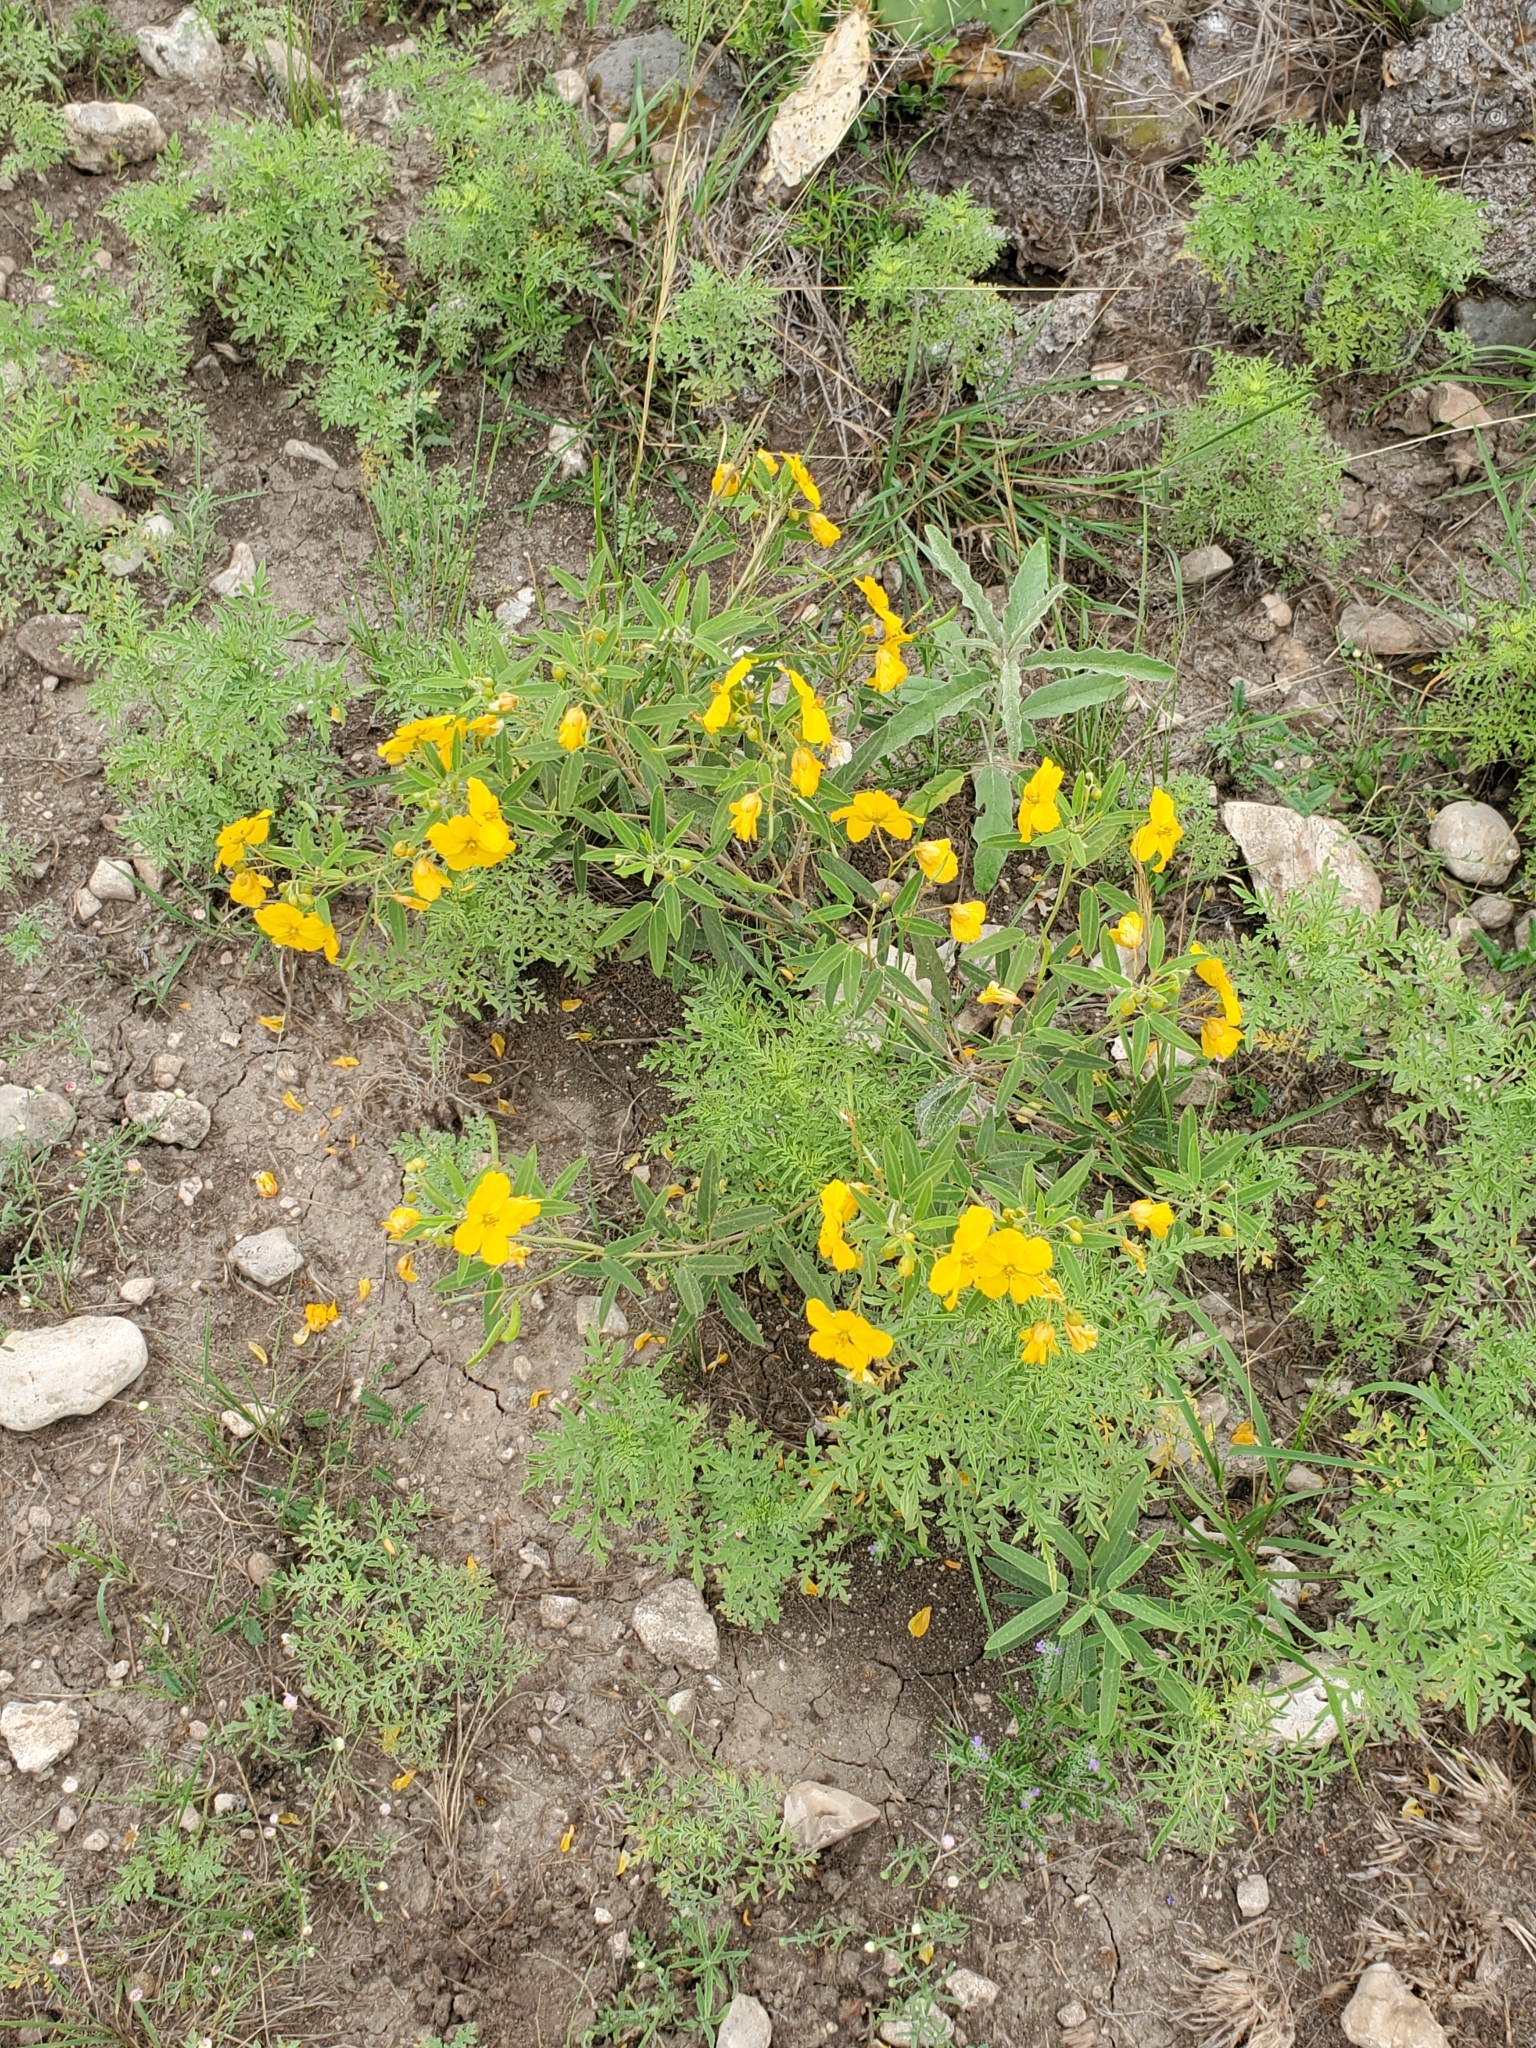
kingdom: Plantae
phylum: Tracheophyta
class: Magnoliopsida
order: Fabales
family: Fabaceae
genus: Senna
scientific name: Senna roemeriana
